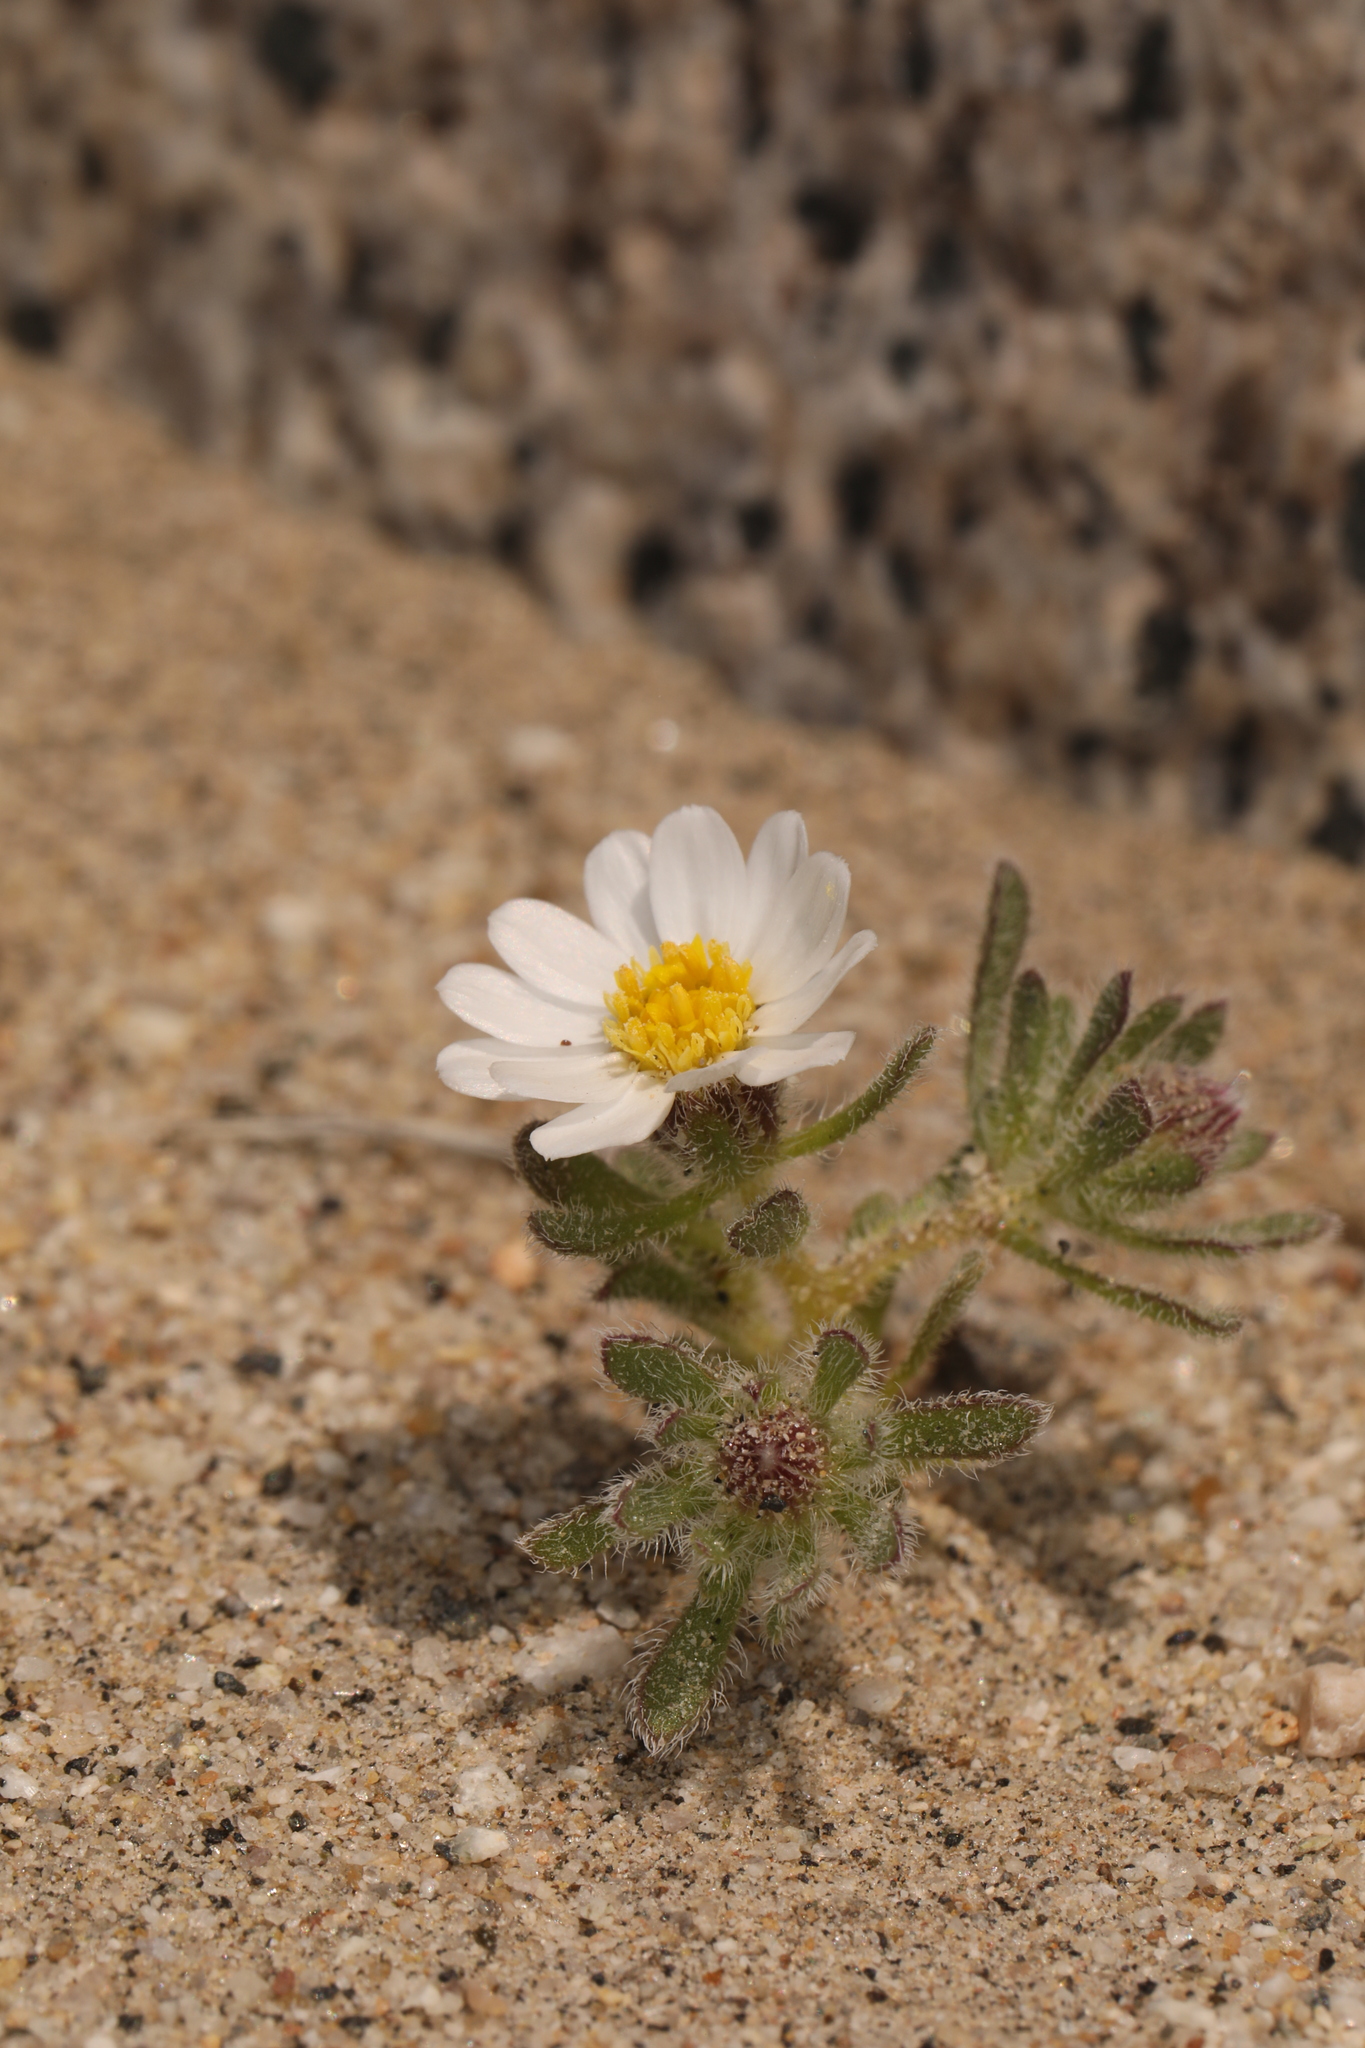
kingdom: Plantae
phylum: Tracheophyta
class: Magnoliopsida
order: Asterales
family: Asteraceae
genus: Monoptilon
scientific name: Monoptilon bellioides
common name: Bristly desertstar
